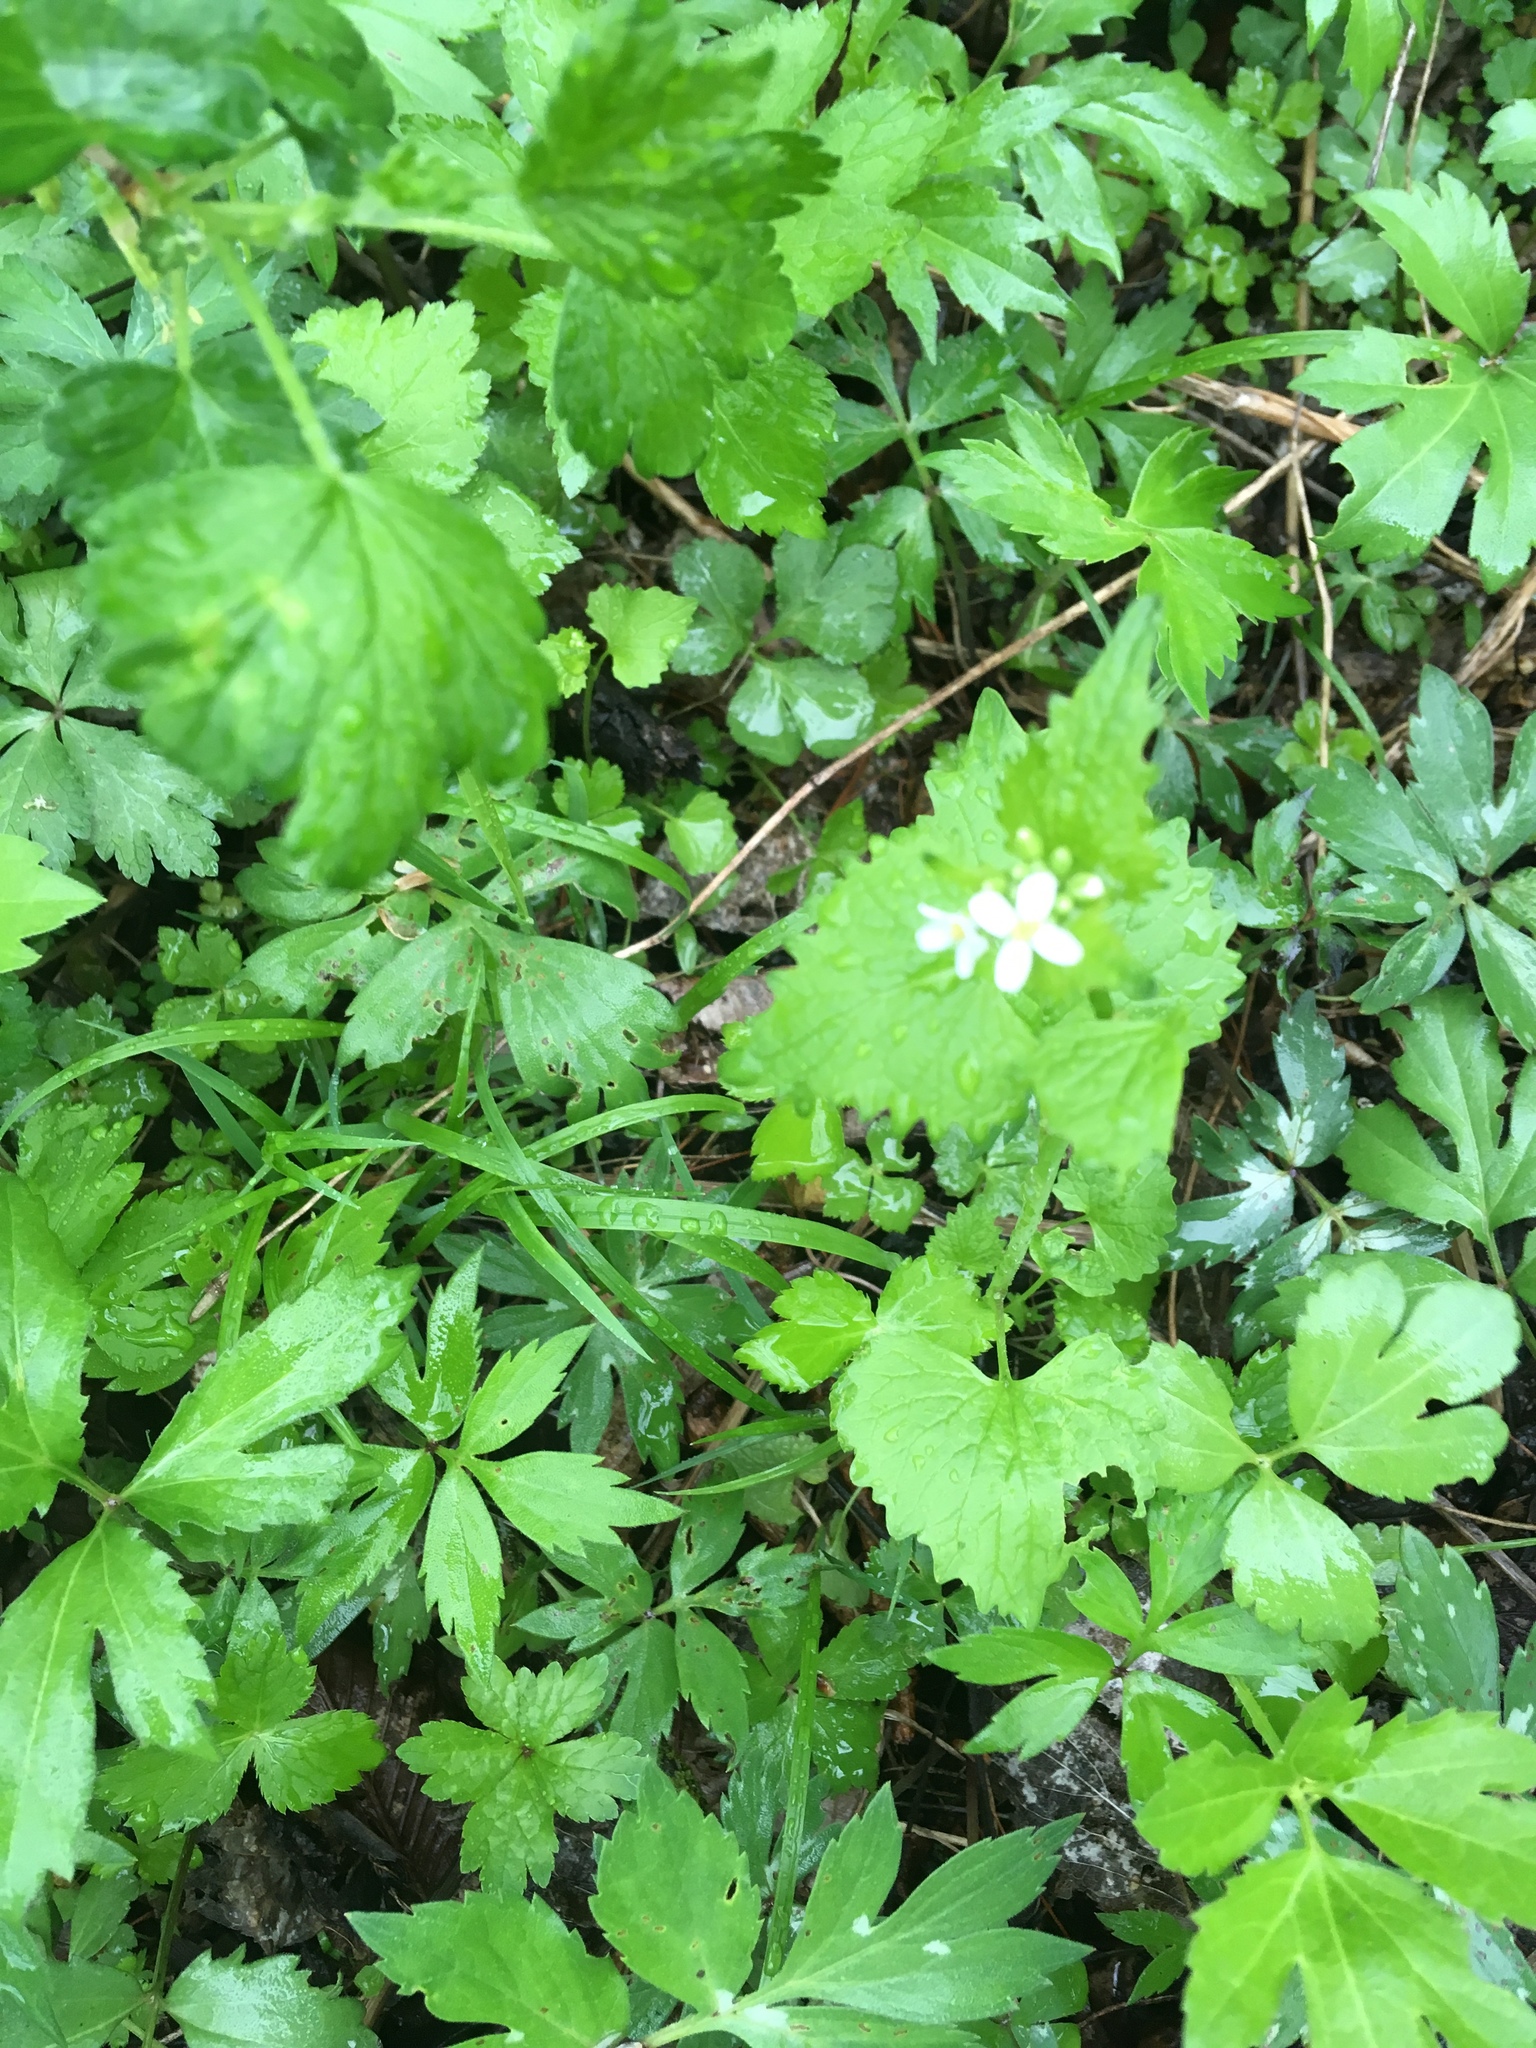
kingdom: Plantae
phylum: Tracheophyta
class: Magnoliopsida
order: Brassicales
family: Brassicaceae
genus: Alliaria
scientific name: Alliaria petiolata
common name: Garlic mustard
